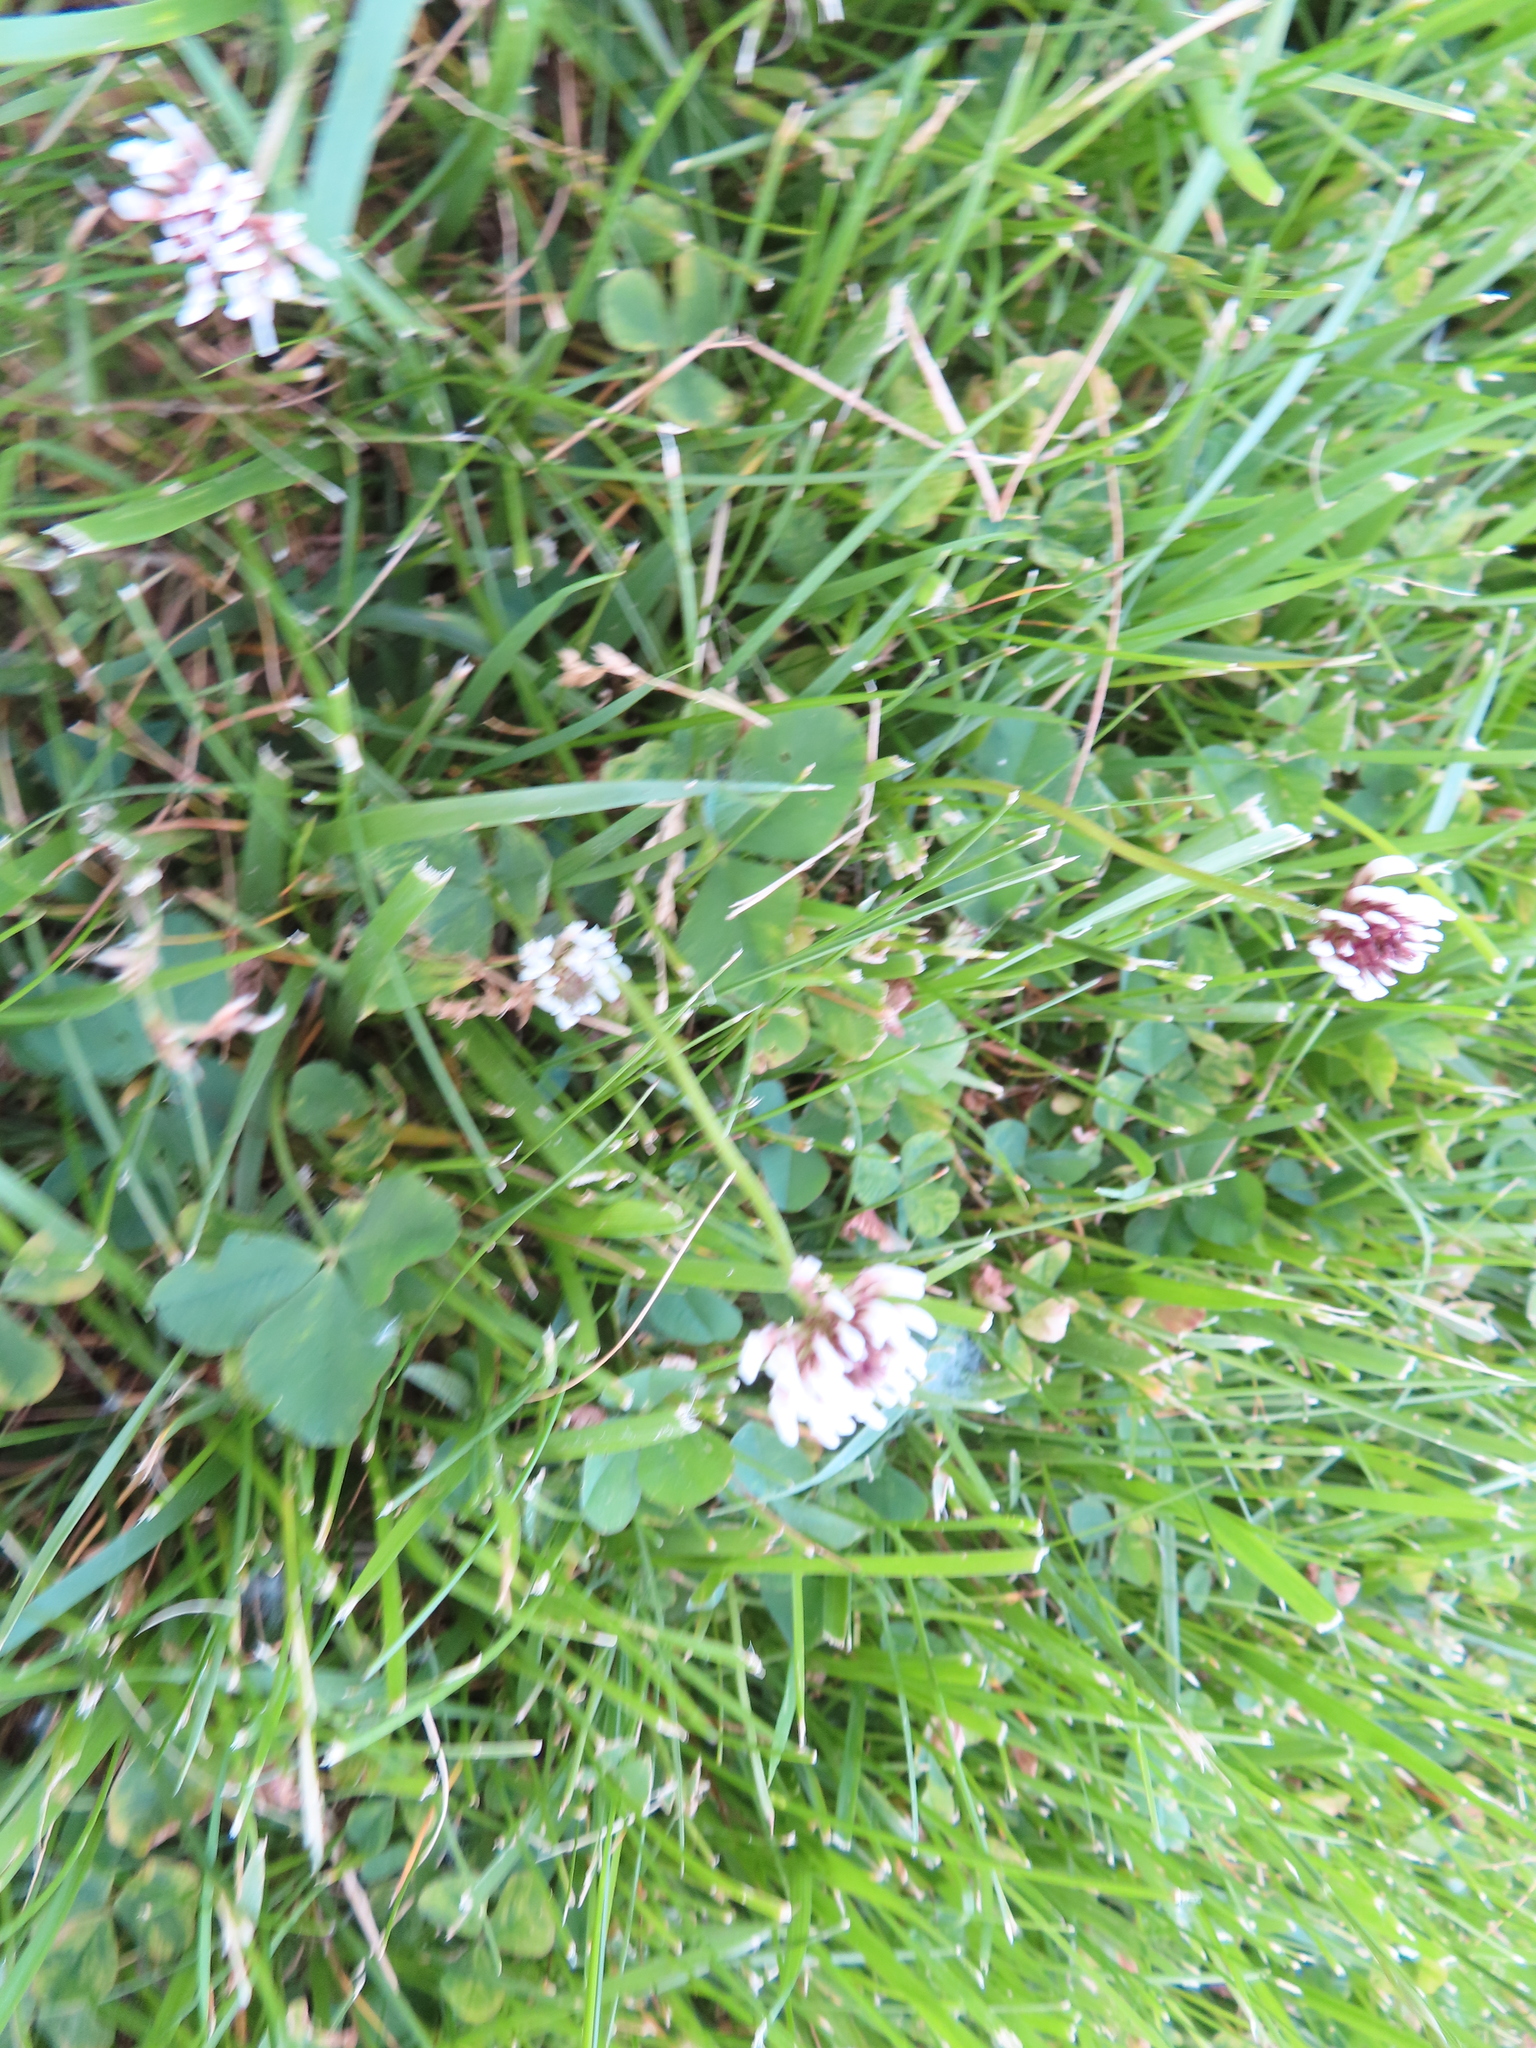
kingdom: Plantae
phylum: Tracheophyta
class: Magnoliopsida
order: Fabales
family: Fabaceae
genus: Trifolium
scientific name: Trifolium repens
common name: White clover
